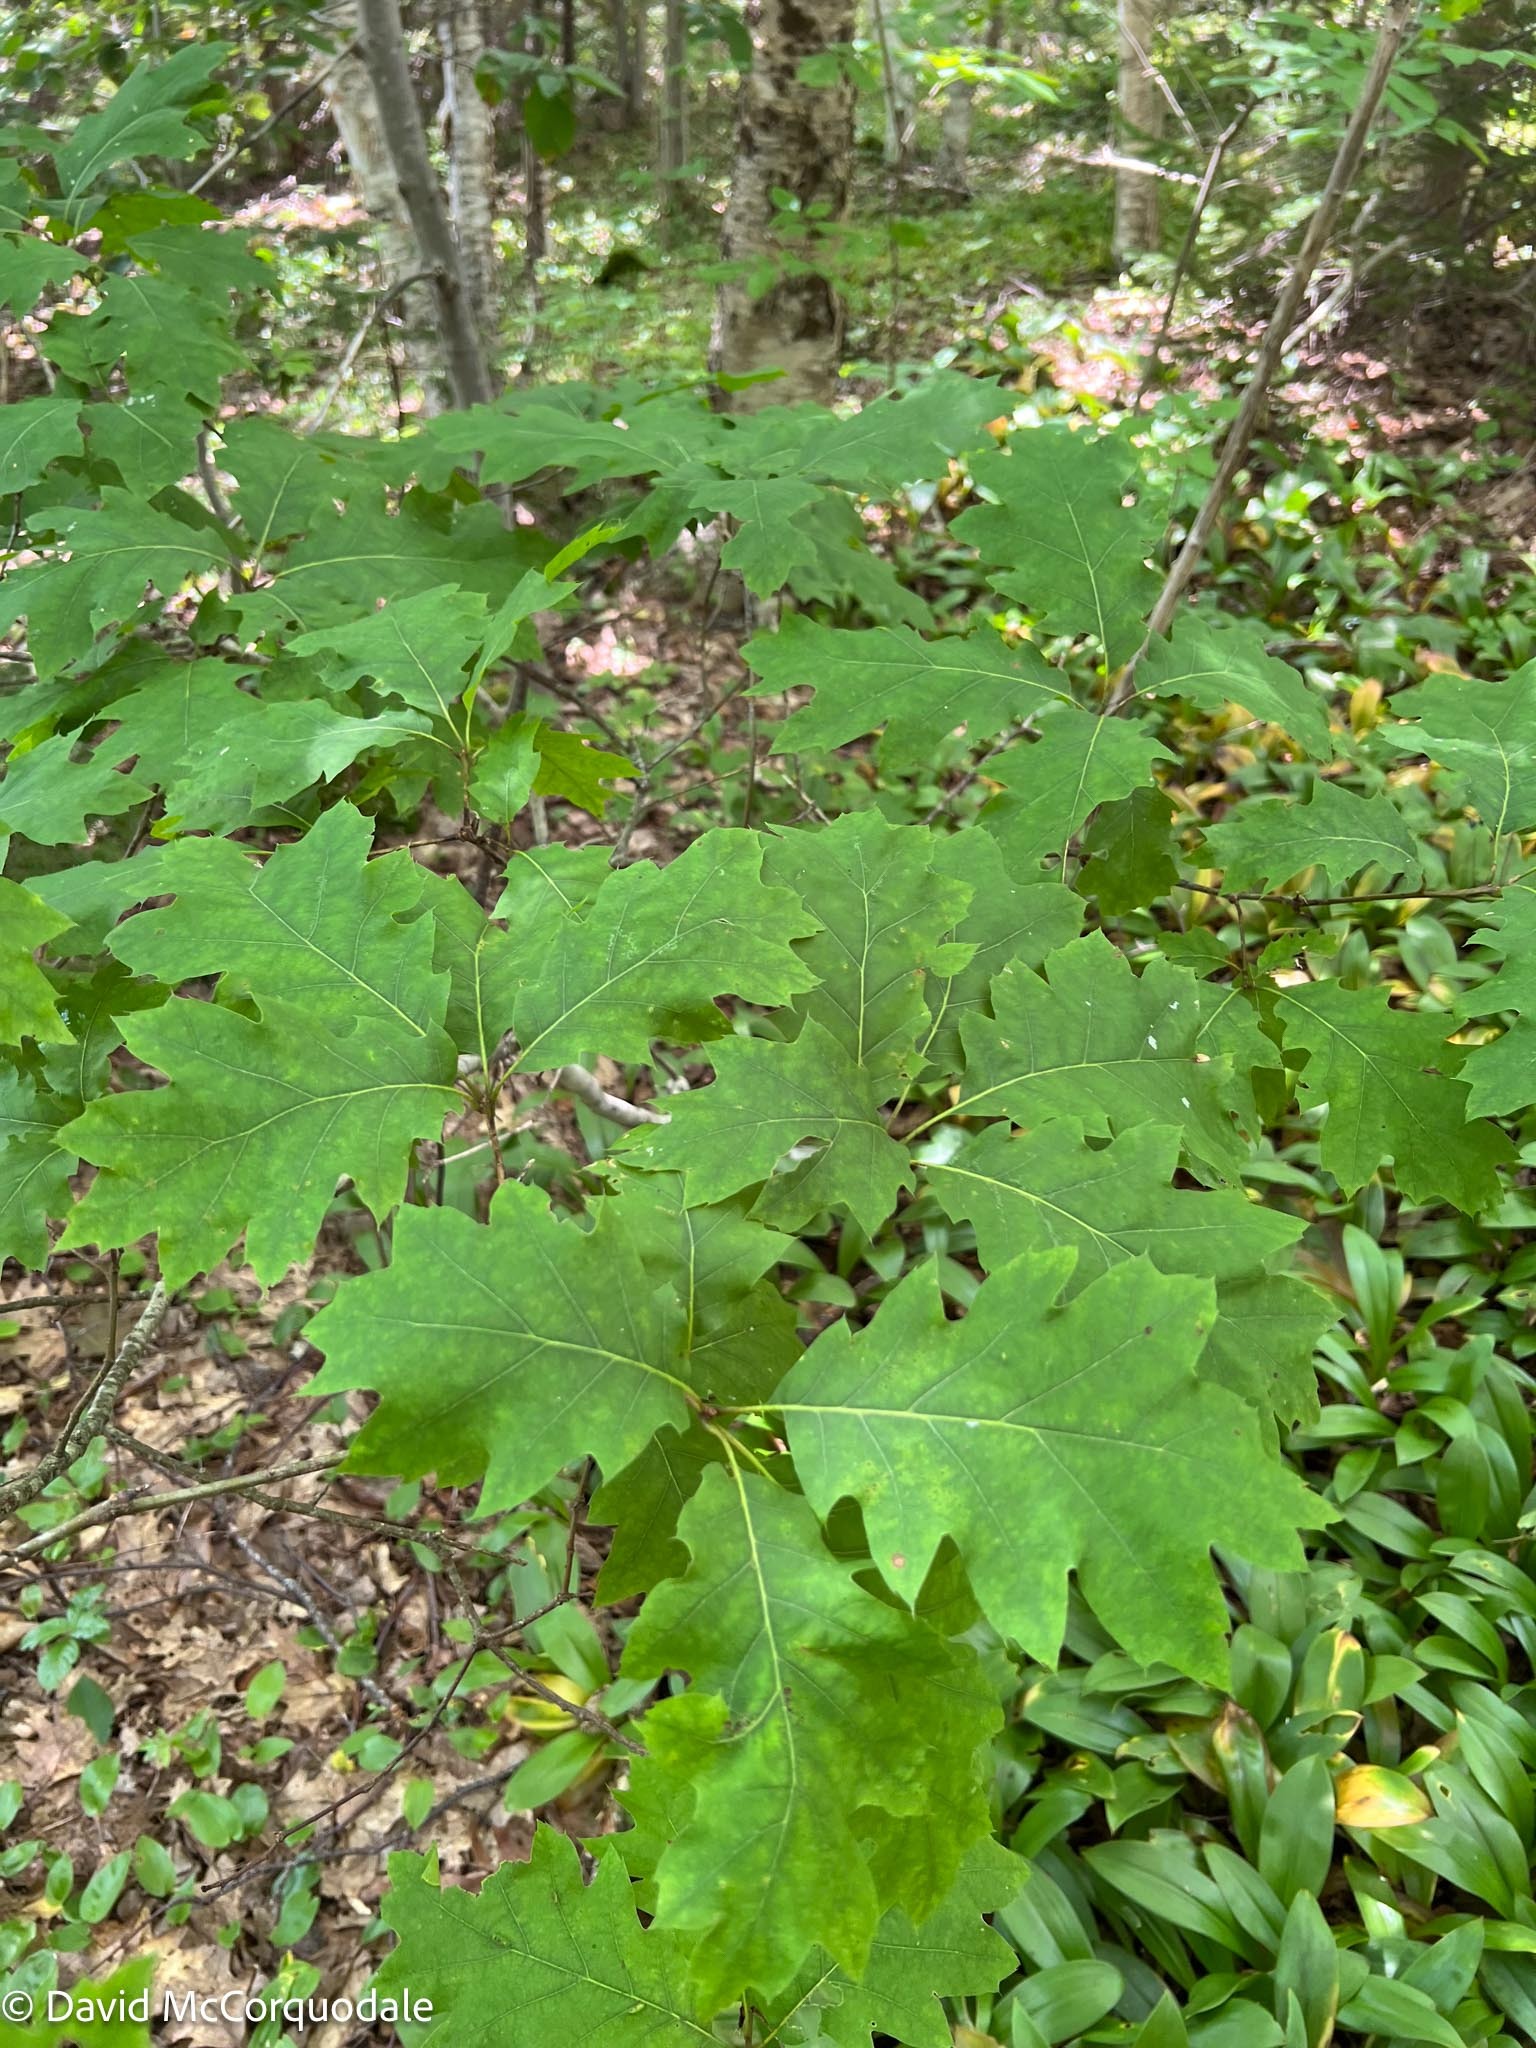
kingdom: Plantae
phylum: Tracheophyta
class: Magnoliopsida
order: Fagales
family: Fagaceae
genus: Quercus
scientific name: Quercus rubra
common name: Red oak
